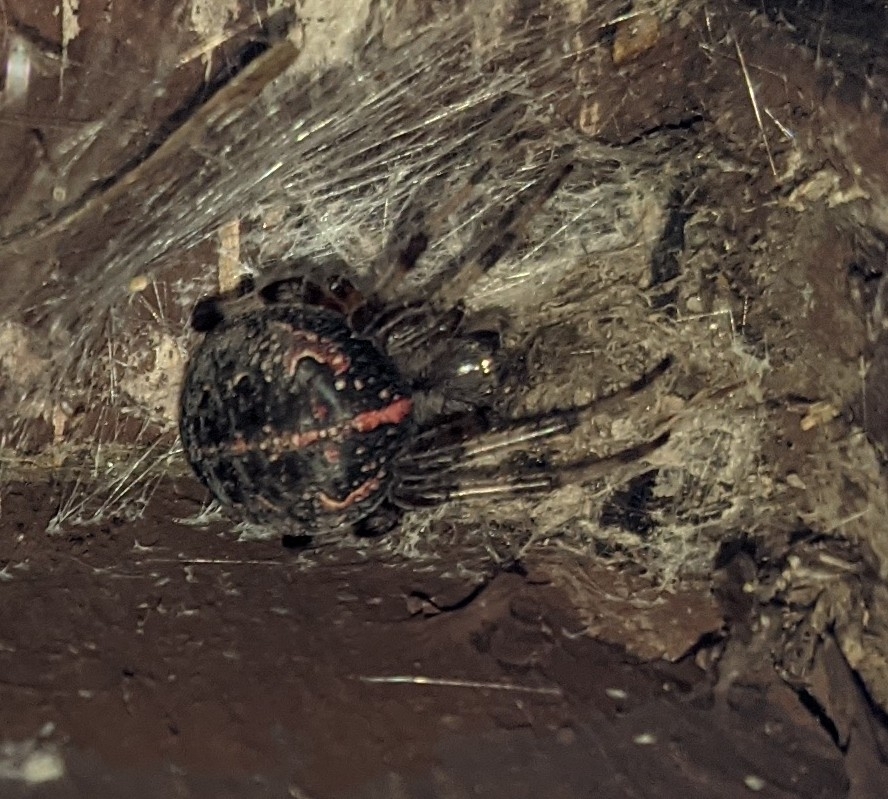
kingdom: Animalia
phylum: Arthropoda
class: Arachnida
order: Araneae
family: Araneidae
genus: Araneus
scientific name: Araneus marmoreus
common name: Marbled orbweaver
